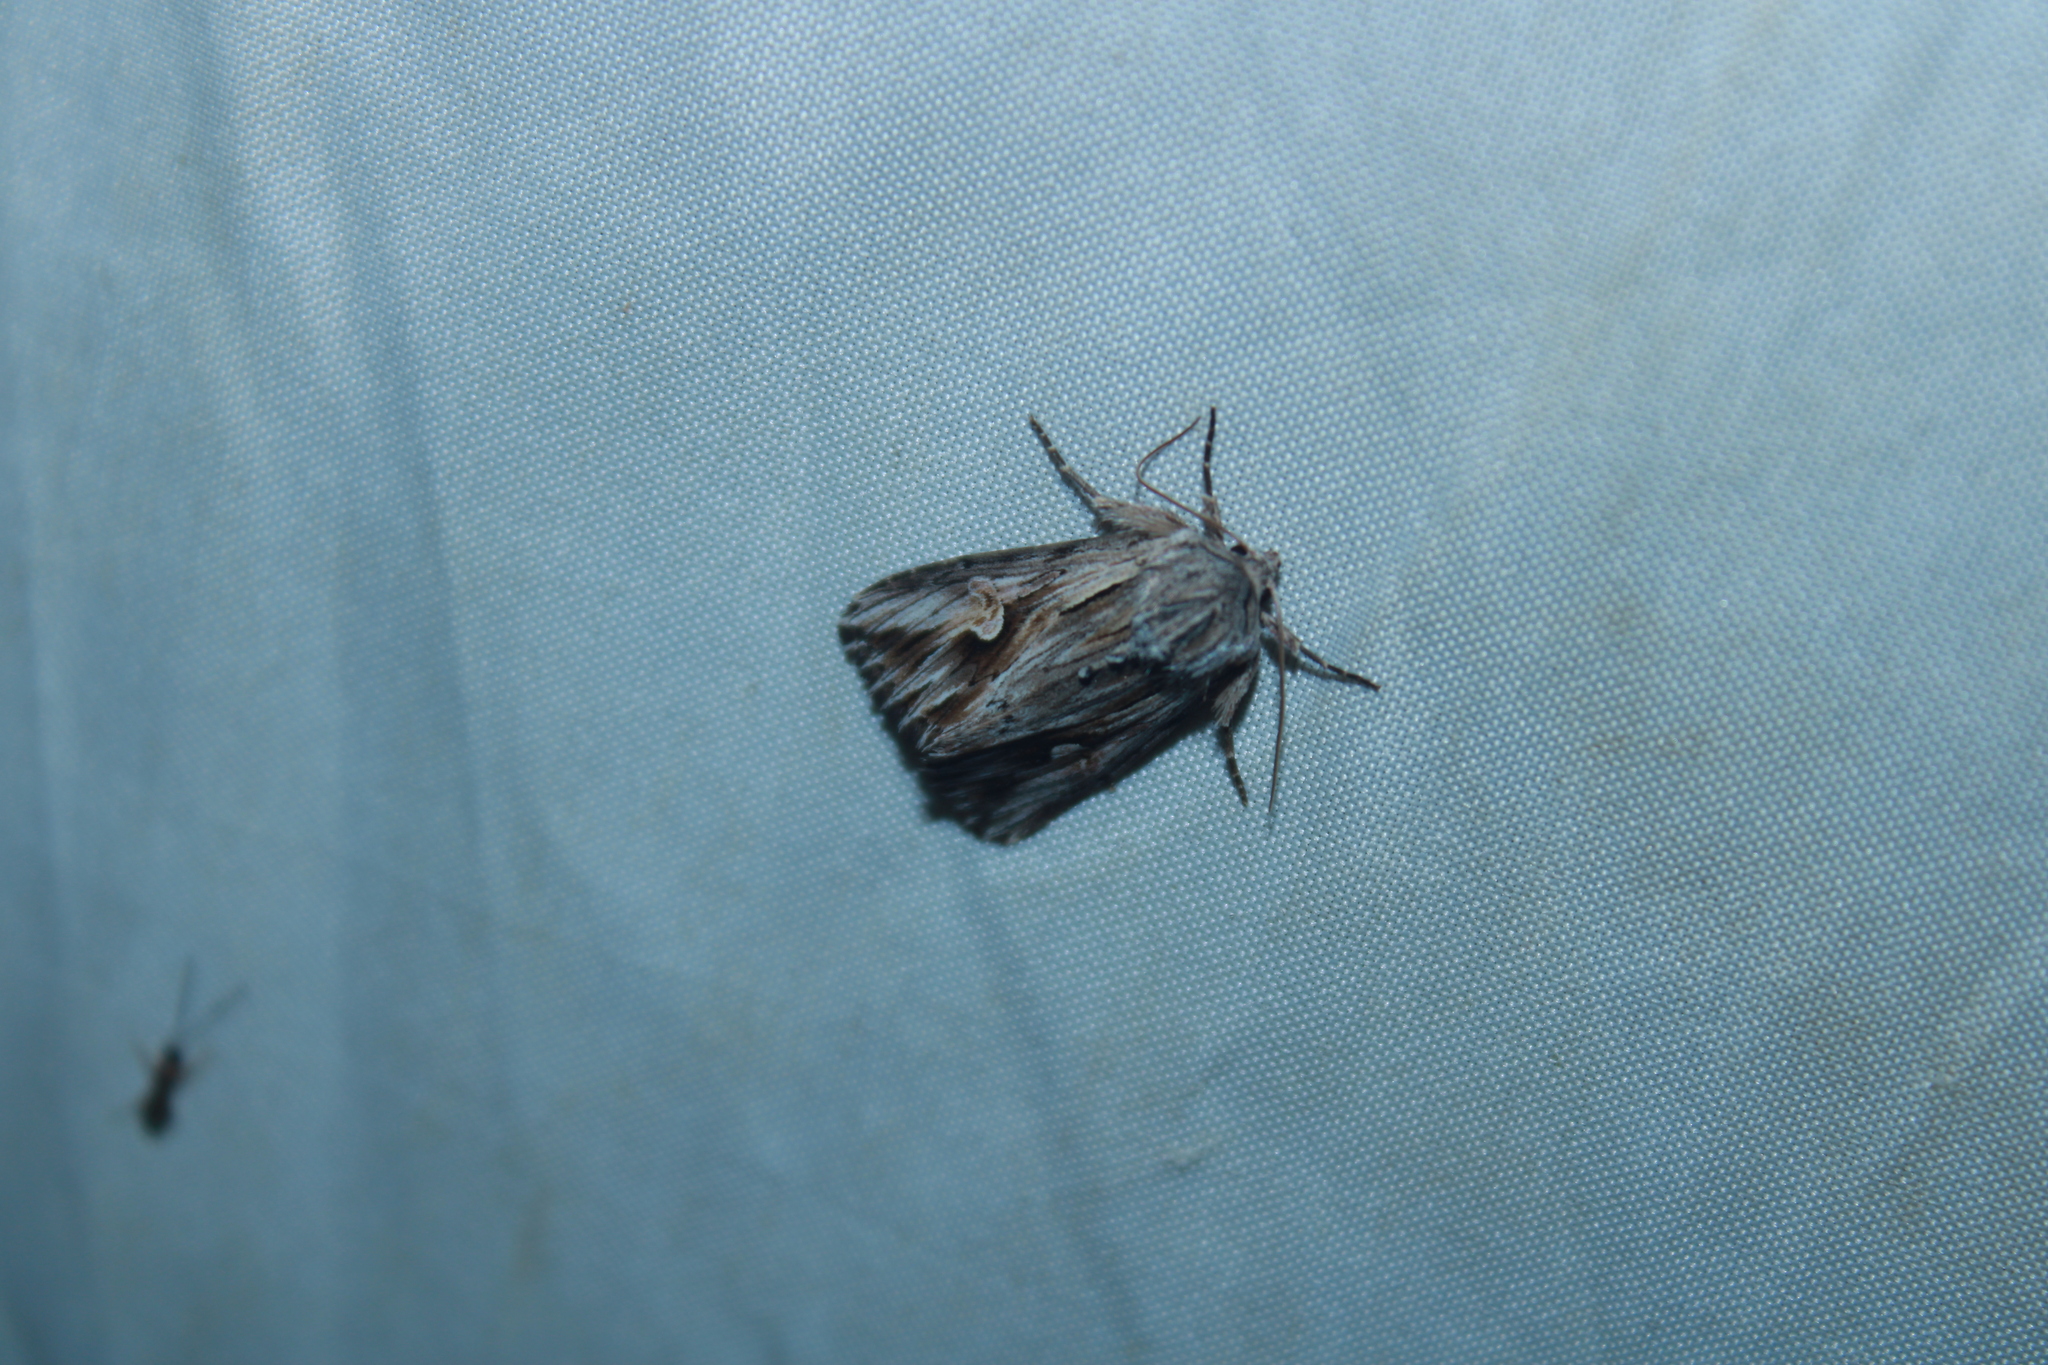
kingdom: Animalia
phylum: Arthropoda
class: Insecta
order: Lepidoptera
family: Noctuidae
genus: Nedra
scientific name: Nedra ramosula
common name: Gray half-spot
